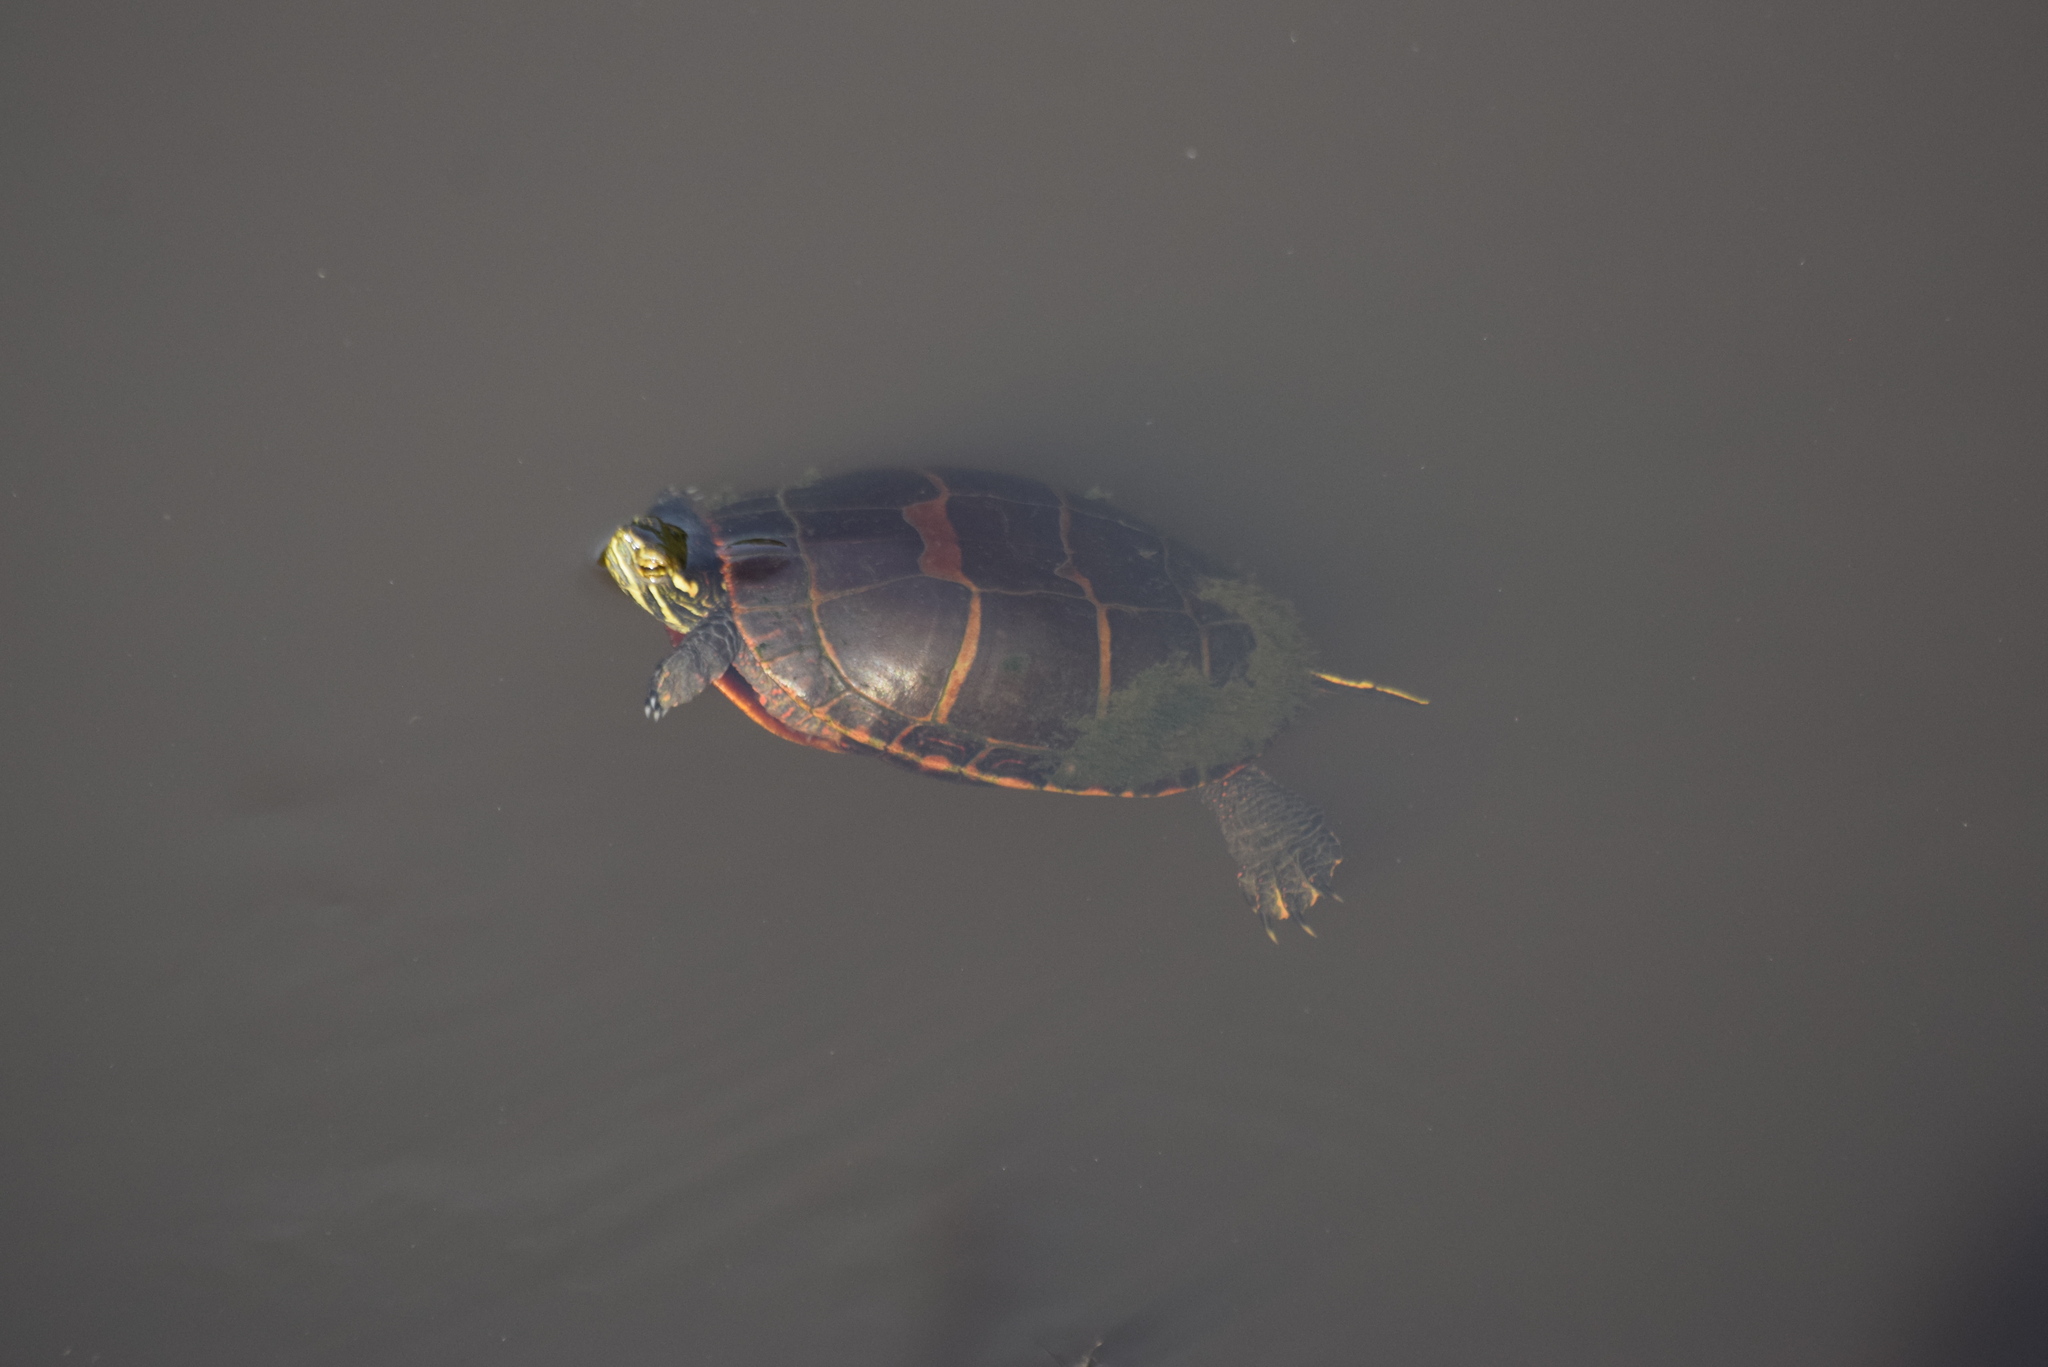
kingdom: Animalia
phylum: Chordata
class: Testudines
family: Emydidae
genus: Chrysemys
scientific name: Chrysemys picta
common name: Painted turtle
